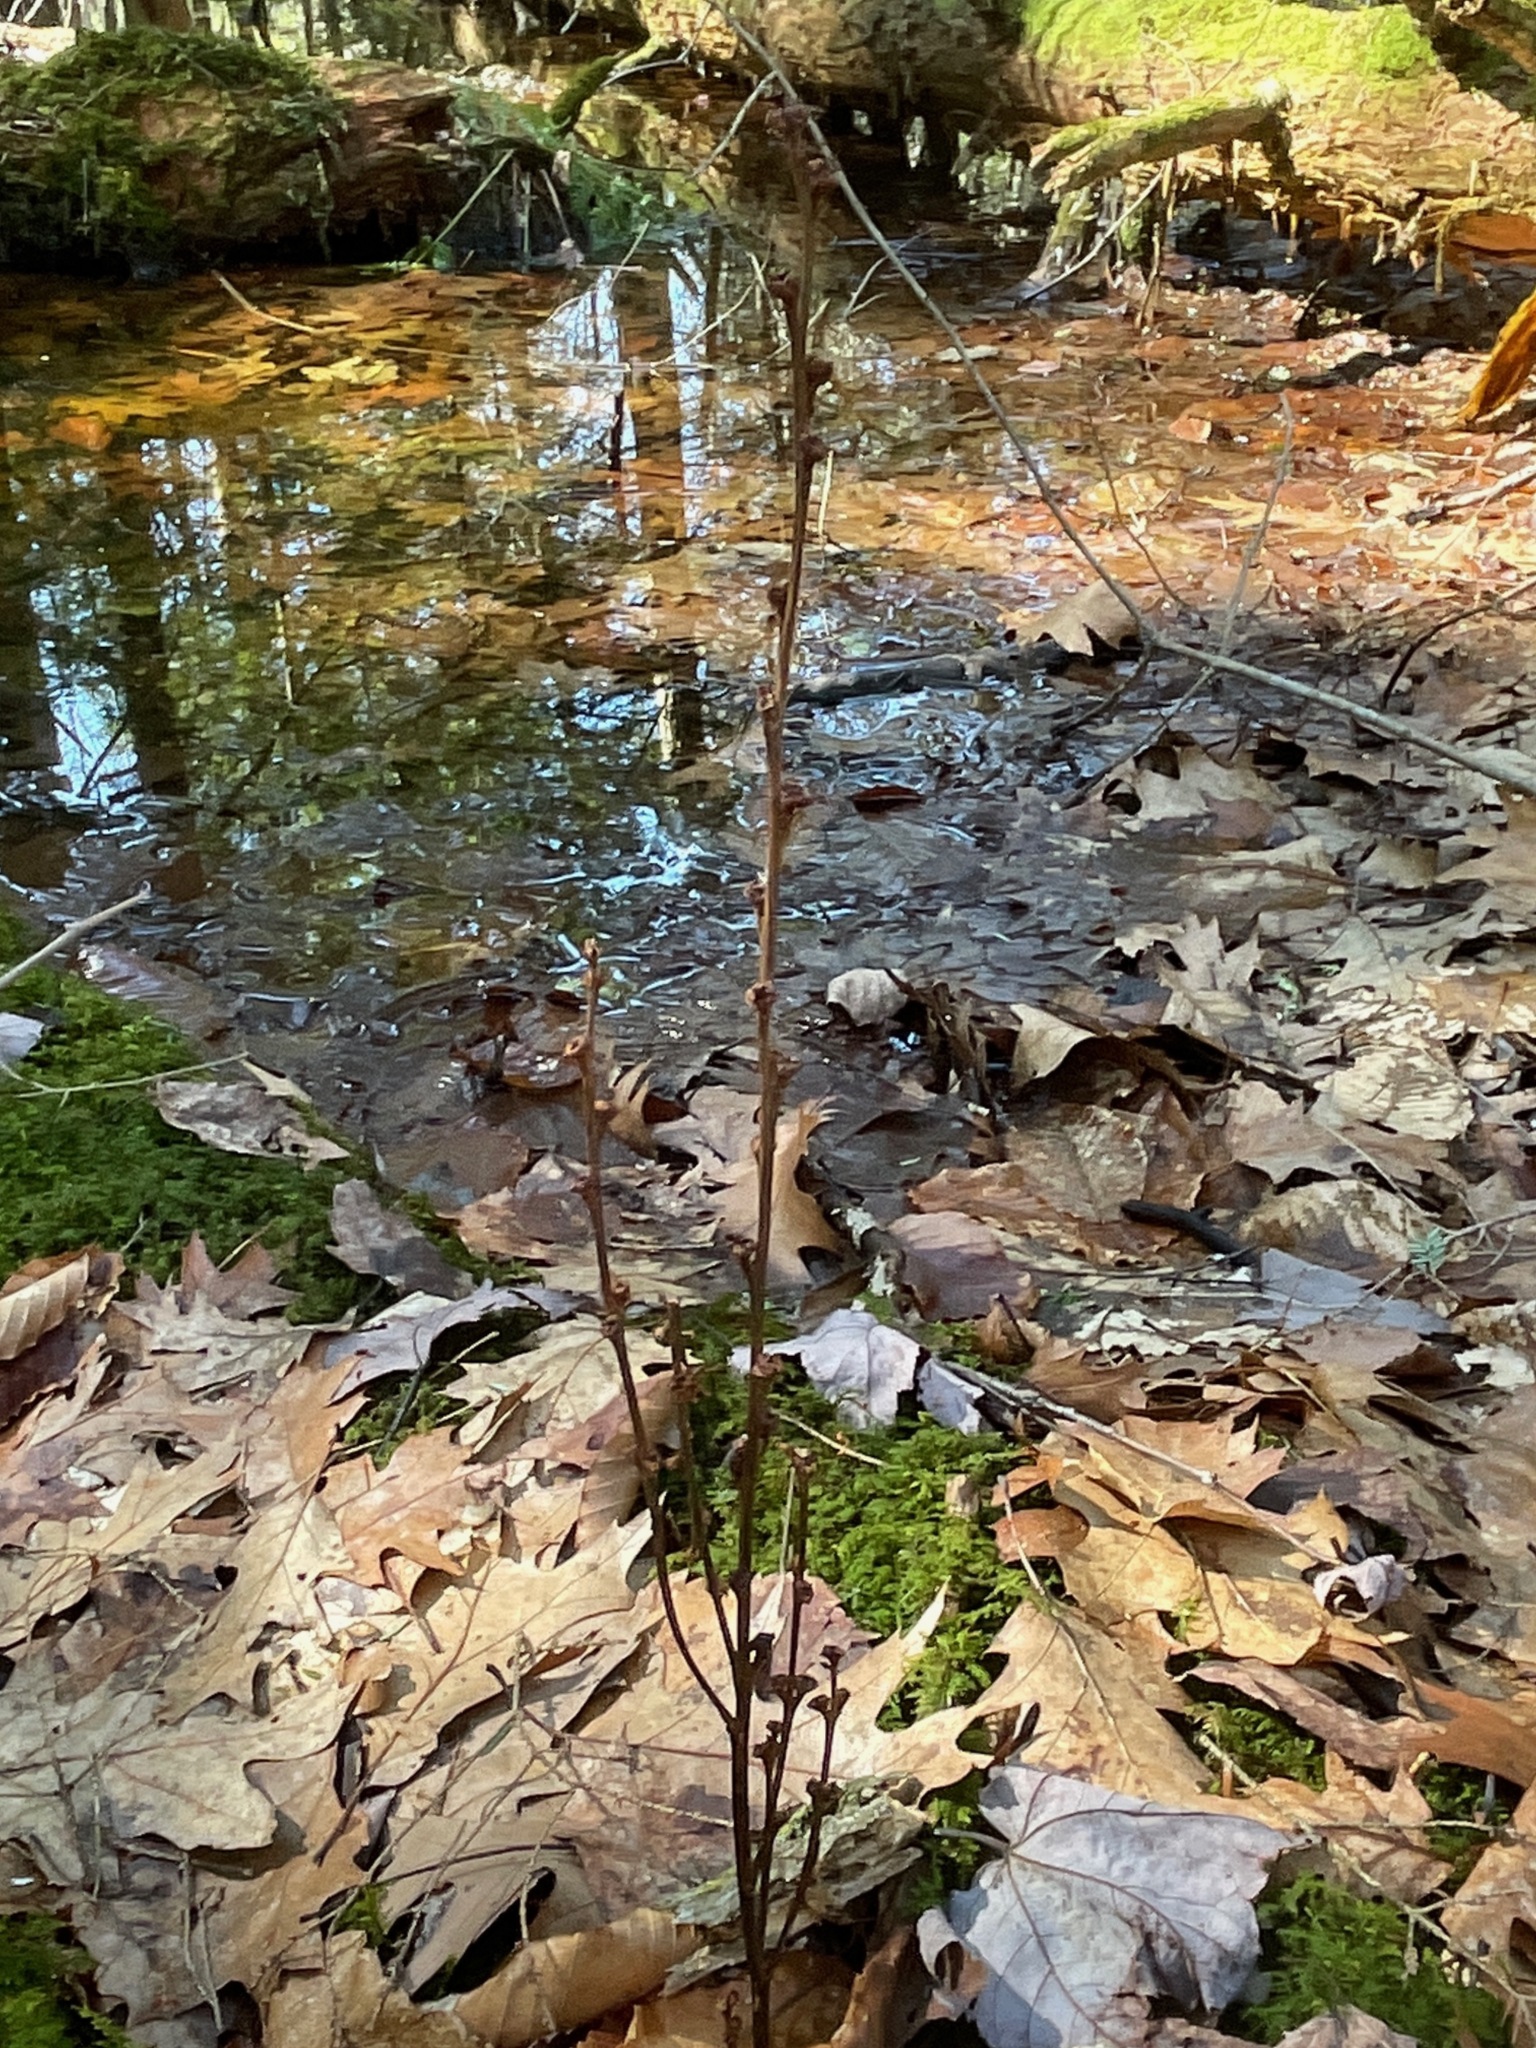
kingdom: Plantae
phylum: Tracheophyta
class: Magnoliopsida
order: Lamiales
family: Orobanchaceae
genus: Epifagus
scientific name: Epifagus virginiana
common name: Beechdrops
